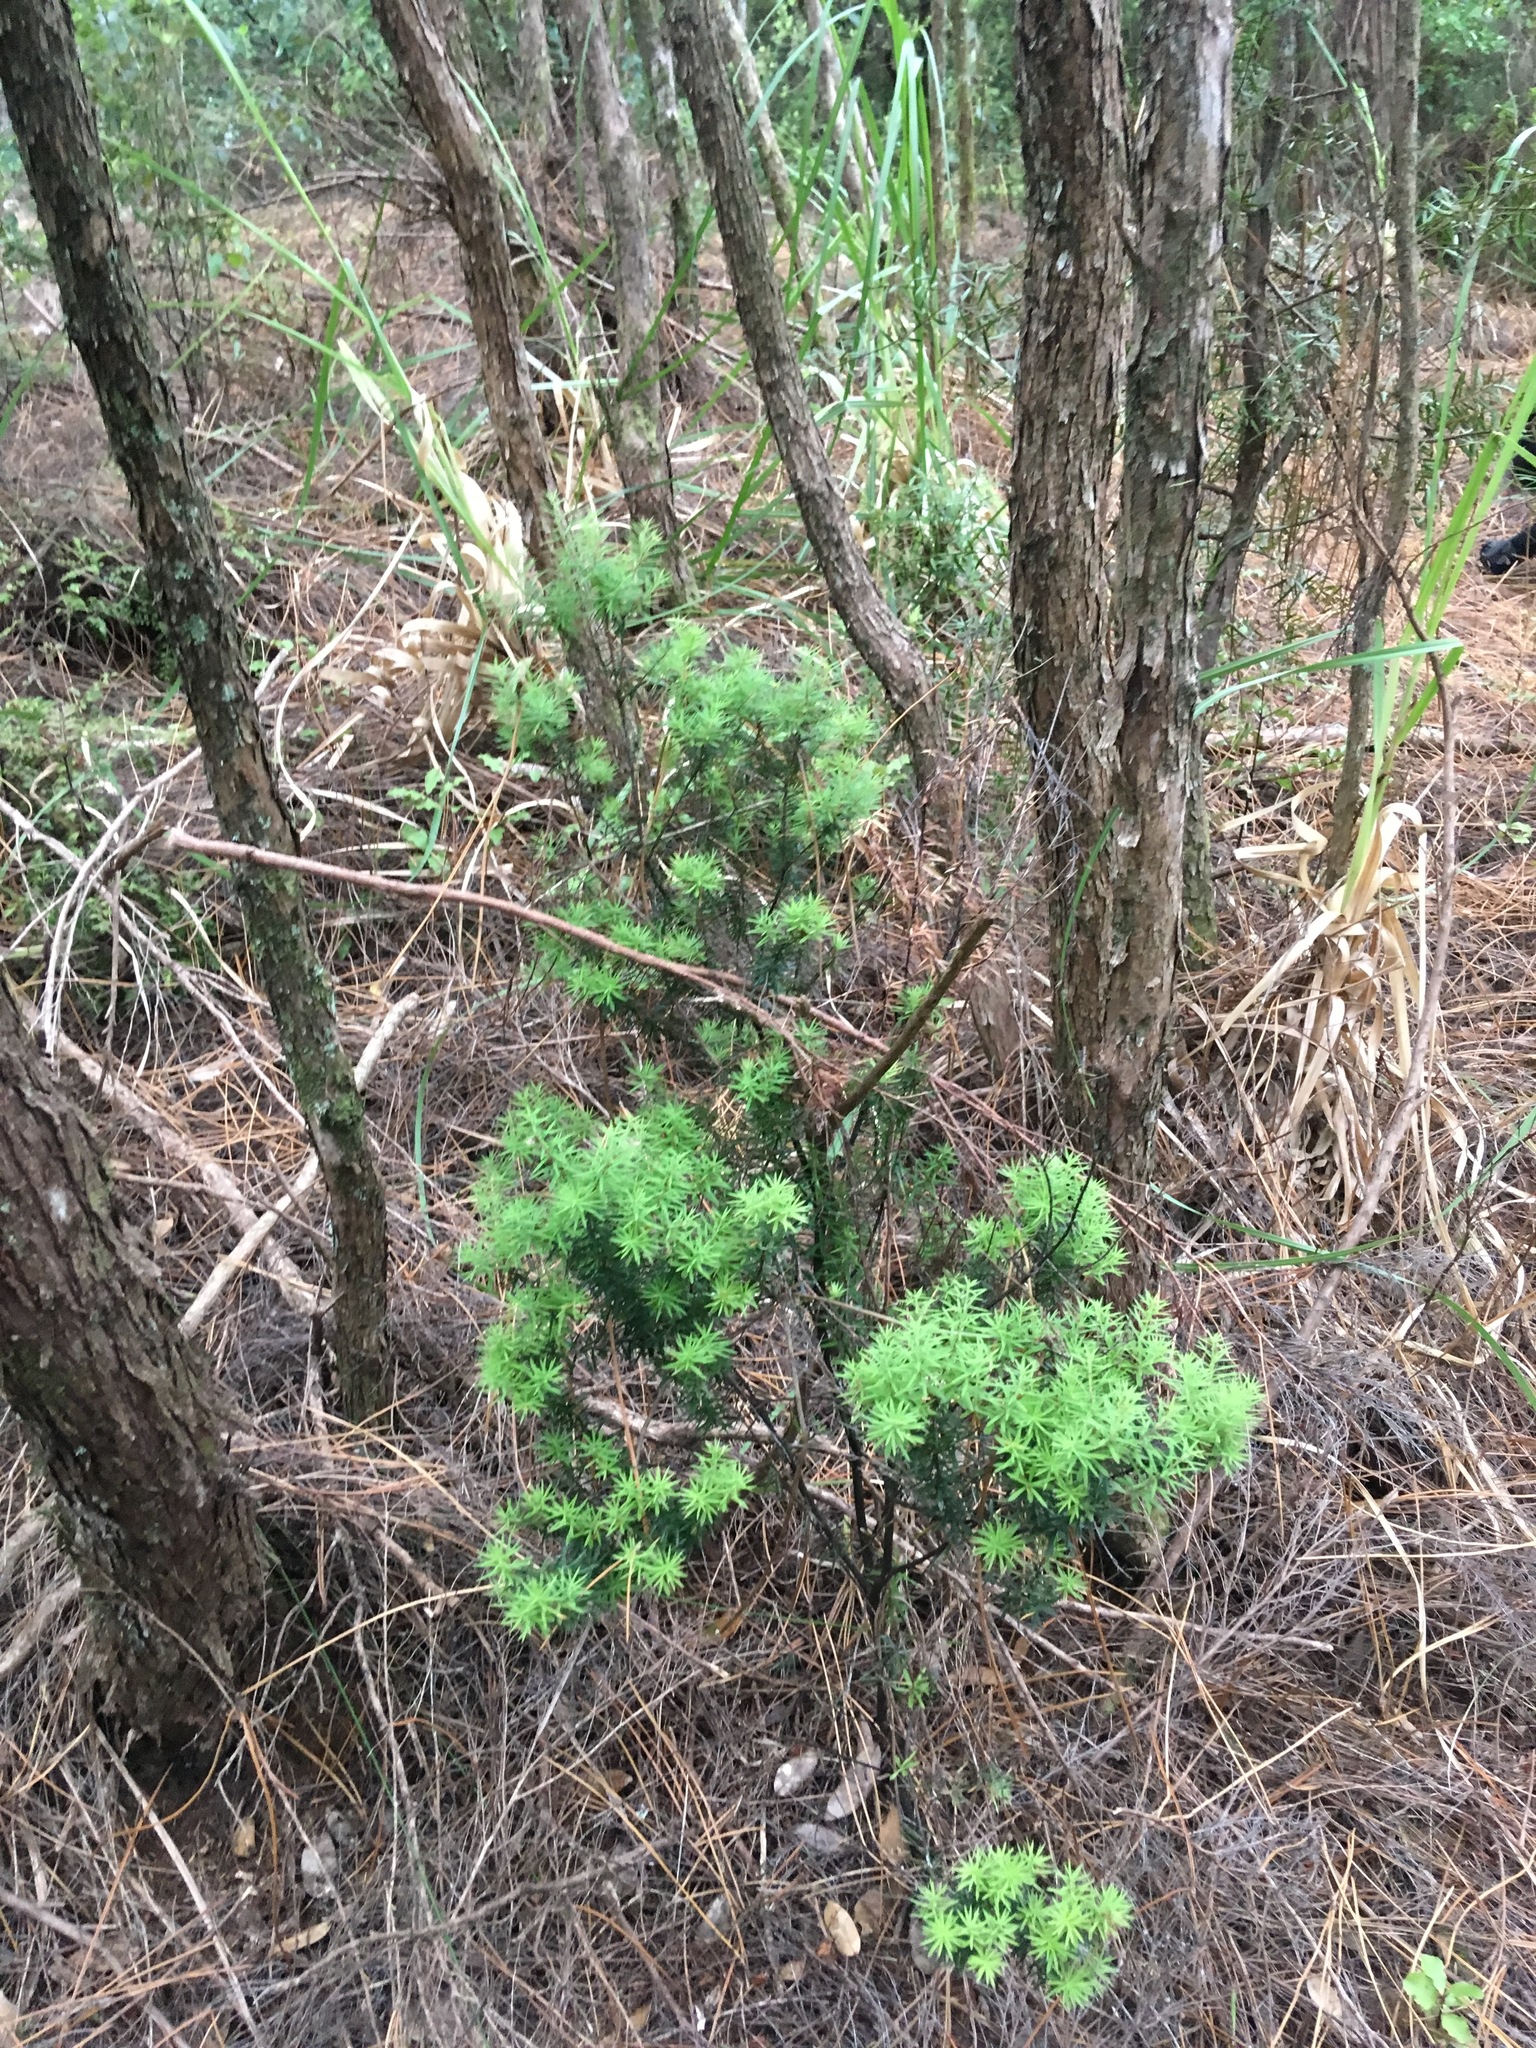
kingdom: Plantae
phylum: Tracheophyta
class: Magnoliopsida
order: Ericales
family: Ericaceae
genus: Leptecophylla
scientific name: Leptecophylla juniperina
